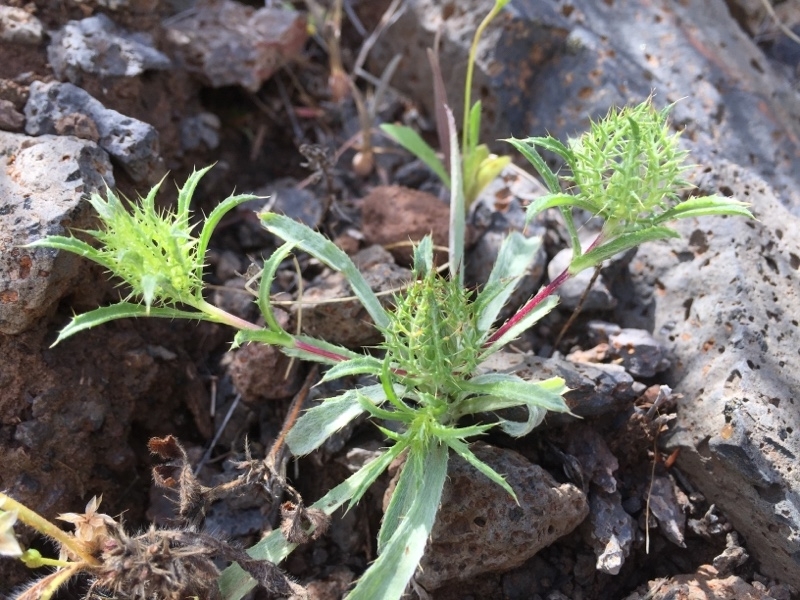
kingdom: Plantae
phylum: Tracheophyta
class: Magnoliopsida
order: Asterales
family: Asteraceae
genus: Atractylis
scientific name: Atractylis cancellata
